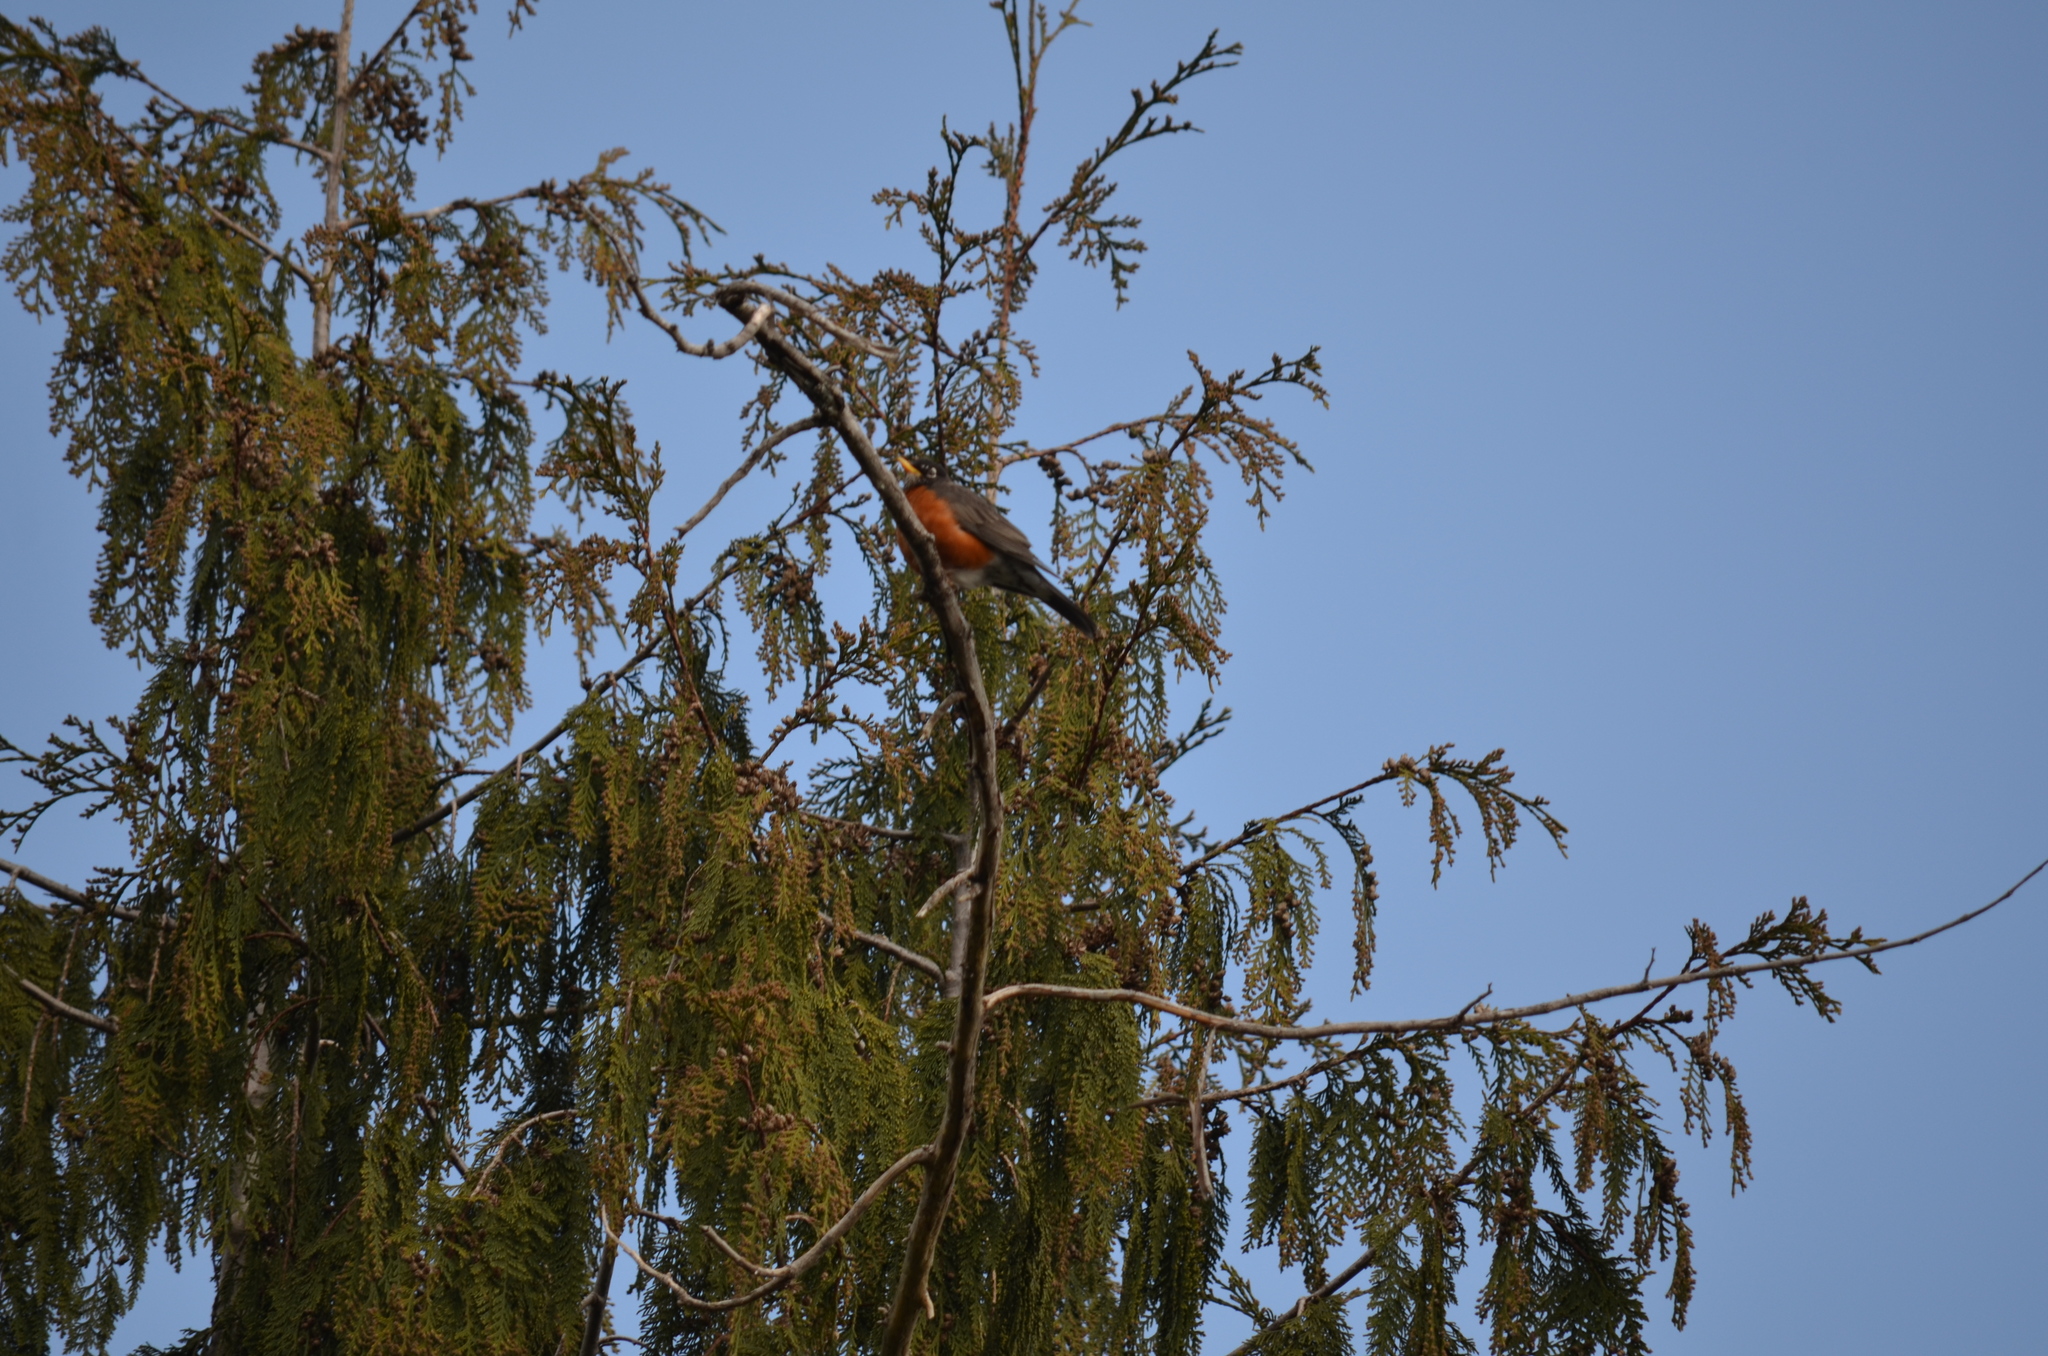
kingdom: Animalia
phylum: Chordata
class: Aves
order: Passeriformes
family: Turdidae
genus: Turdus
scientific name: Turdus migratorius
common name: American robin
